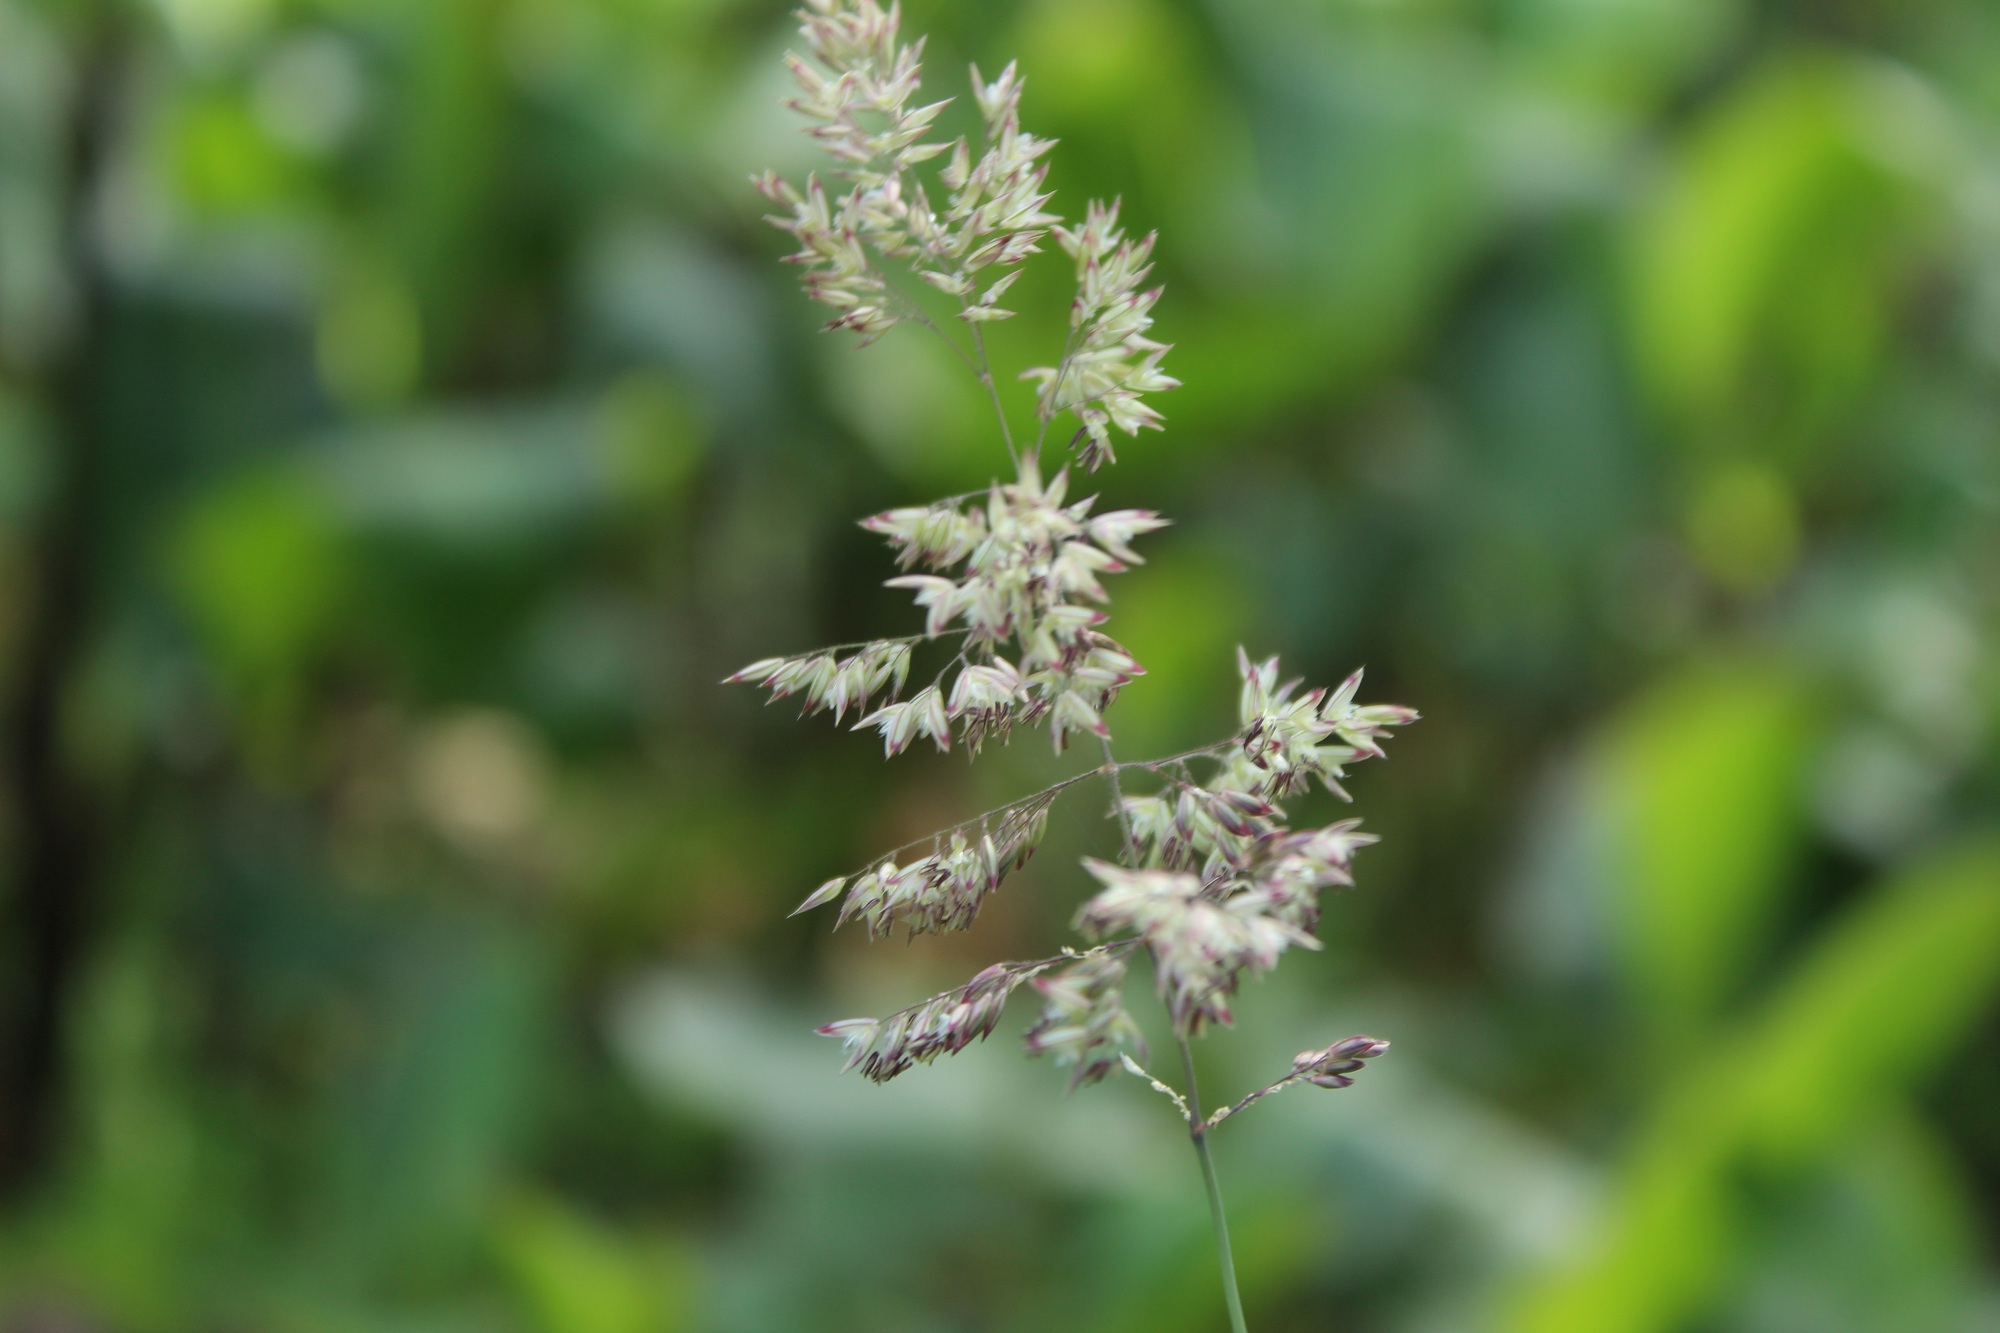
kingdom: Plantae
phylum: Tracheophyta
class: Liliopsida
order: Poales
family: Poaceae
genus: Holcus
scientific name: Holcus lanatus
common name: Yorkshire-fog
